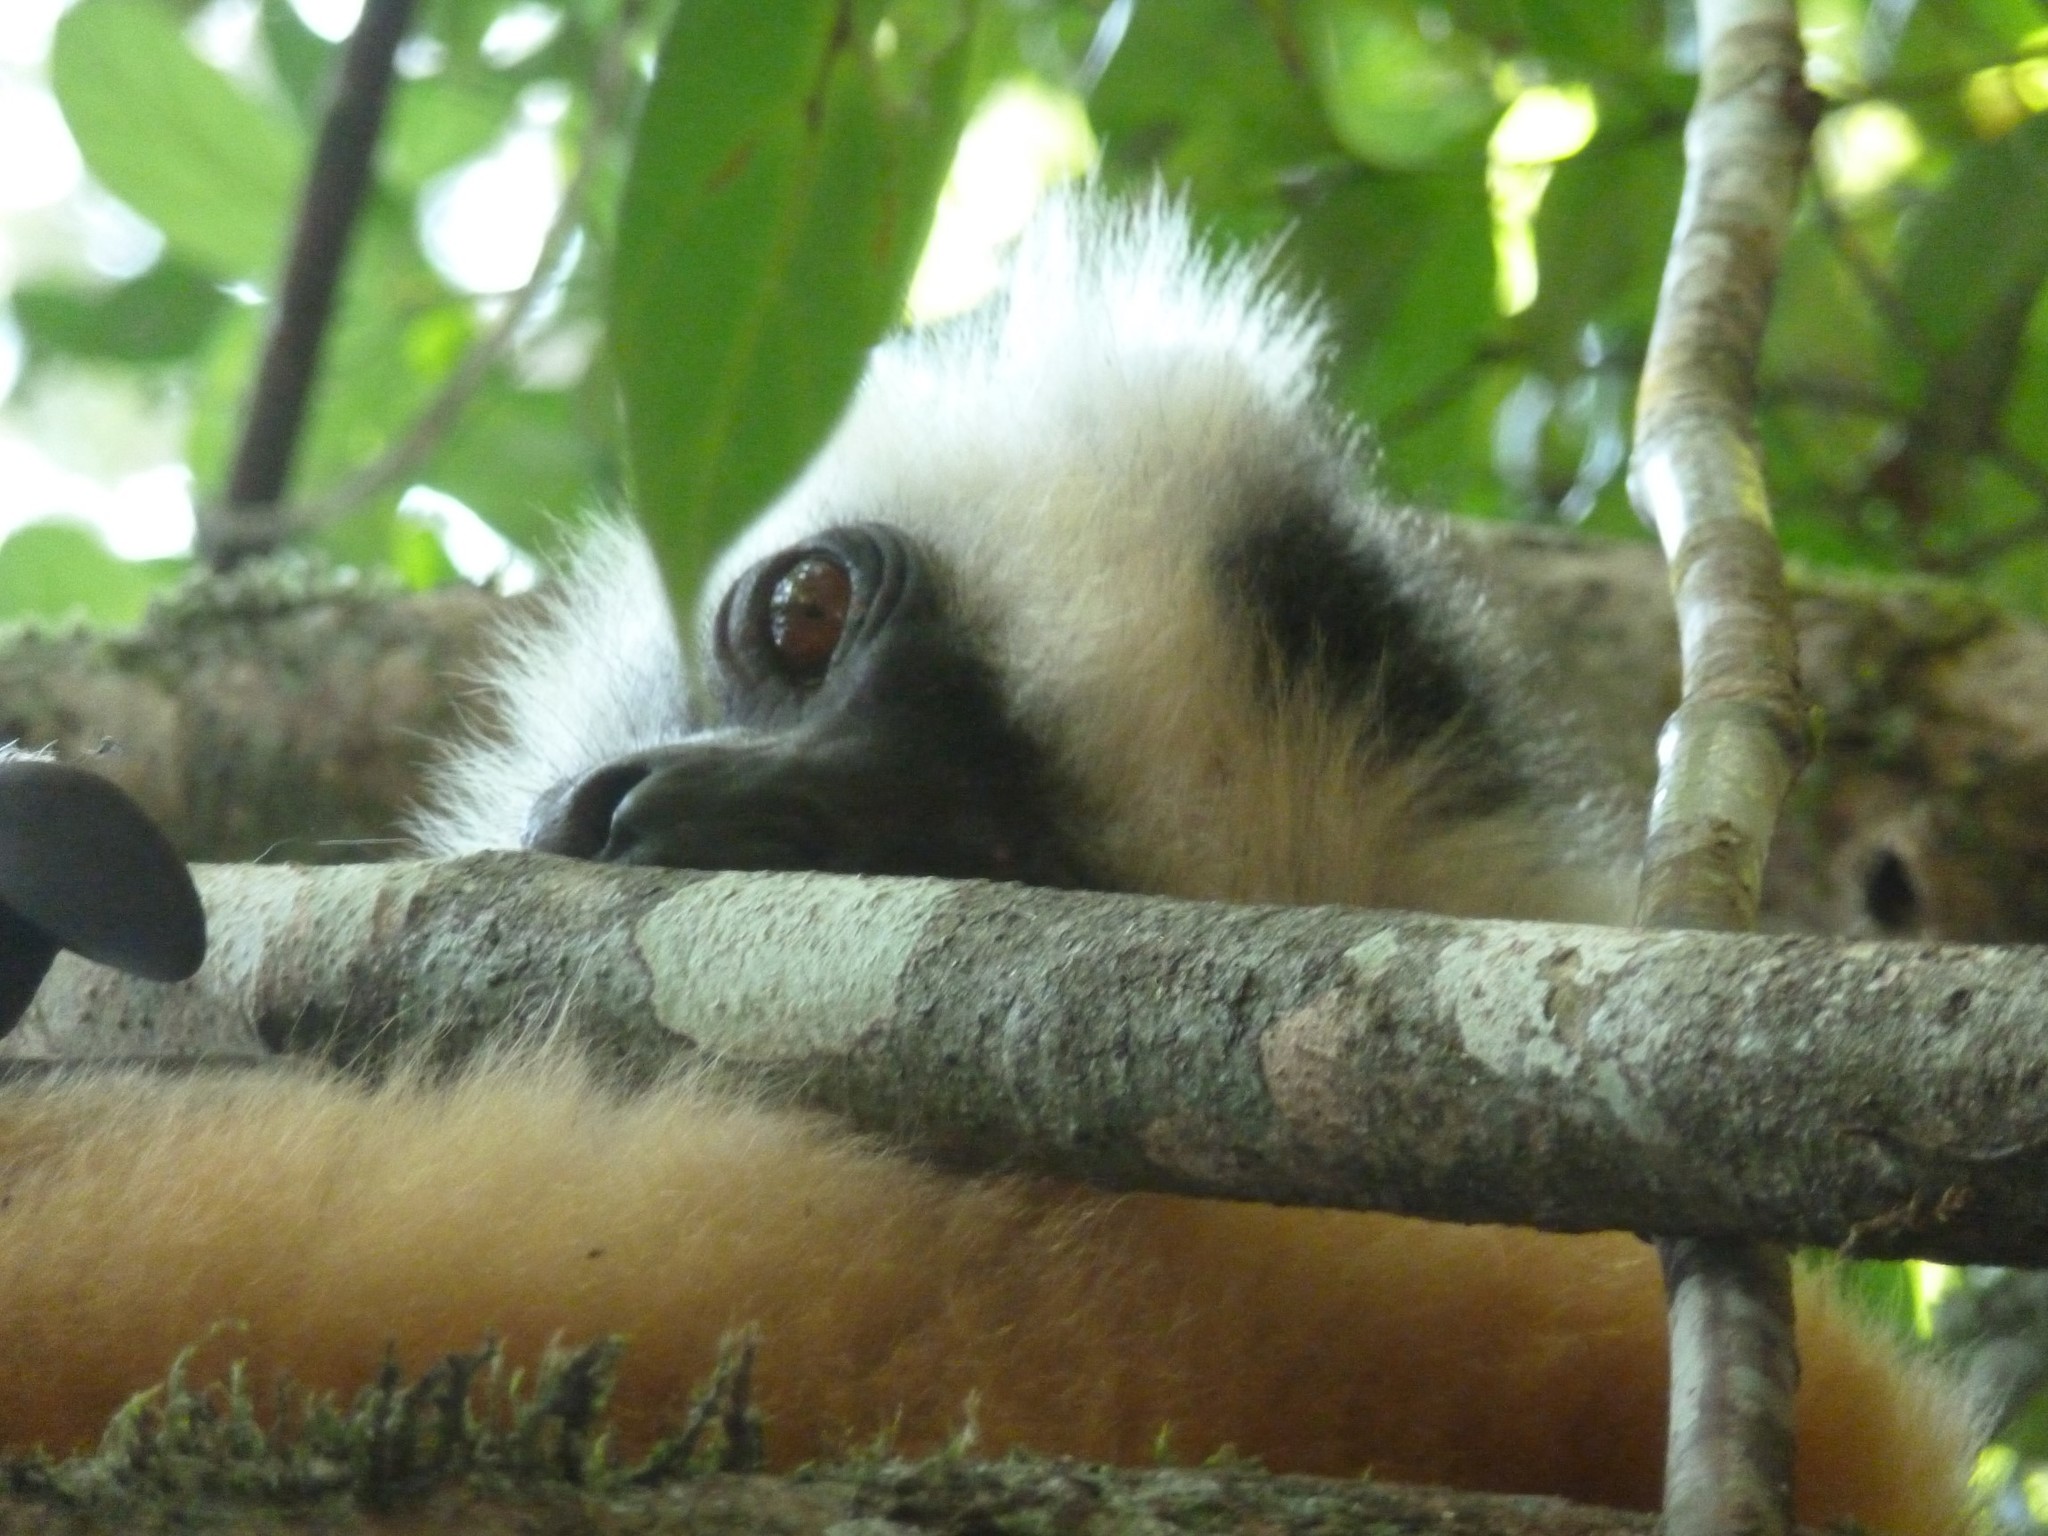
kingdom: Animalia
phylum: Chordata
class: Mammalia
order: Primates
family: Indriidae
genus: Propithecus
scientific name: Propithecus diadema
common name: Diademed sifaka
